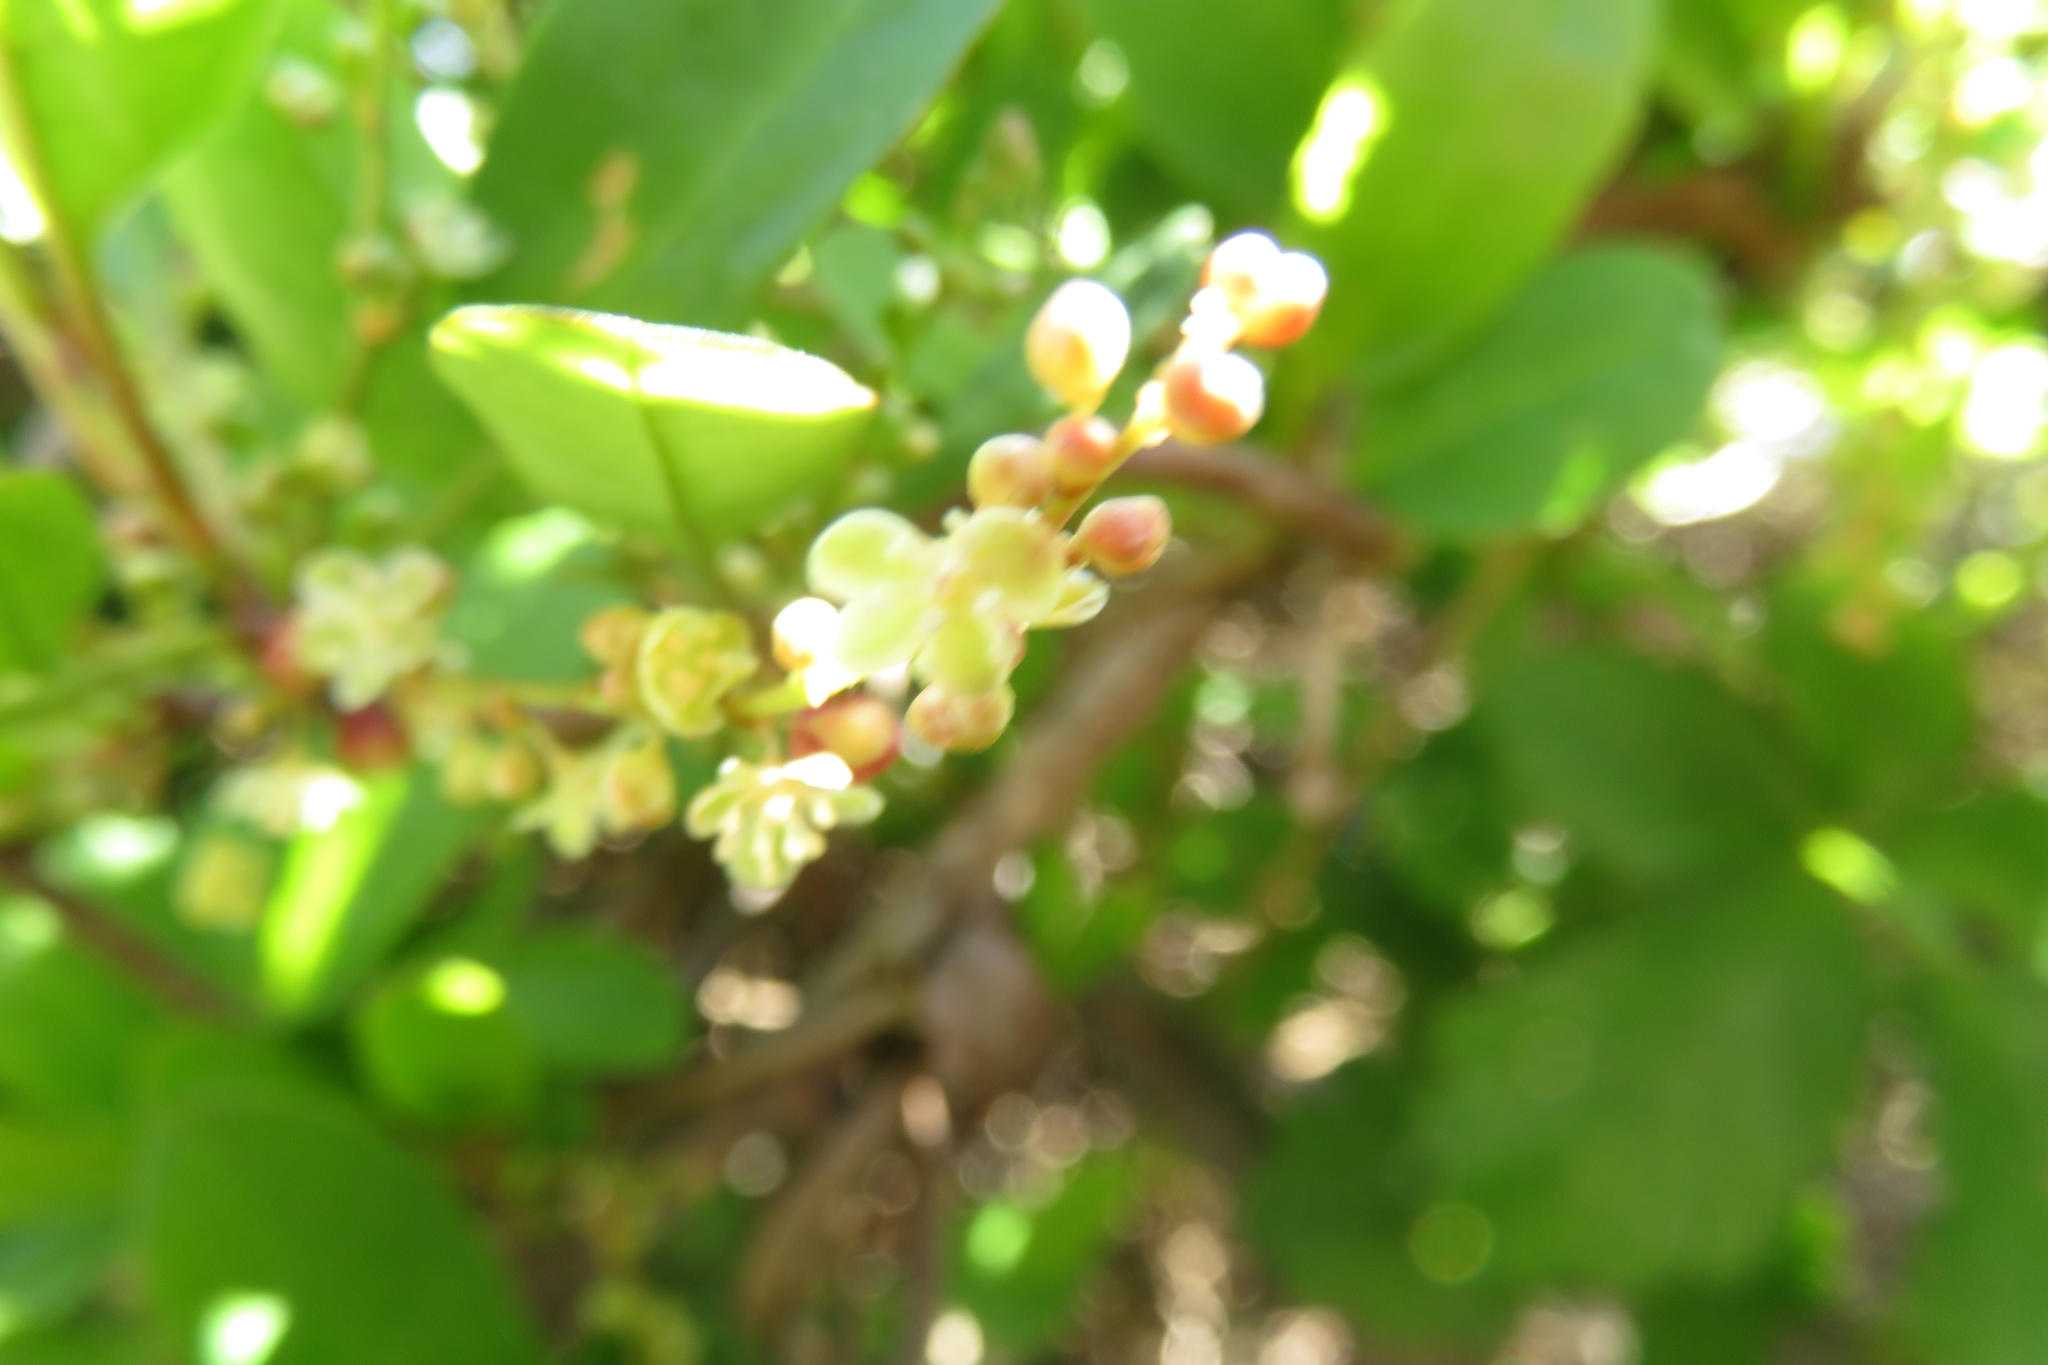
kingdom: Plantae
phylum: Tracheophyta
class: Magnoliopsida
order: Caryophyllales
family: Polygonaceae
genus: Muehlenbeckia
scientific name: Muehlenbeckia hastulata
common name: Wirevine
